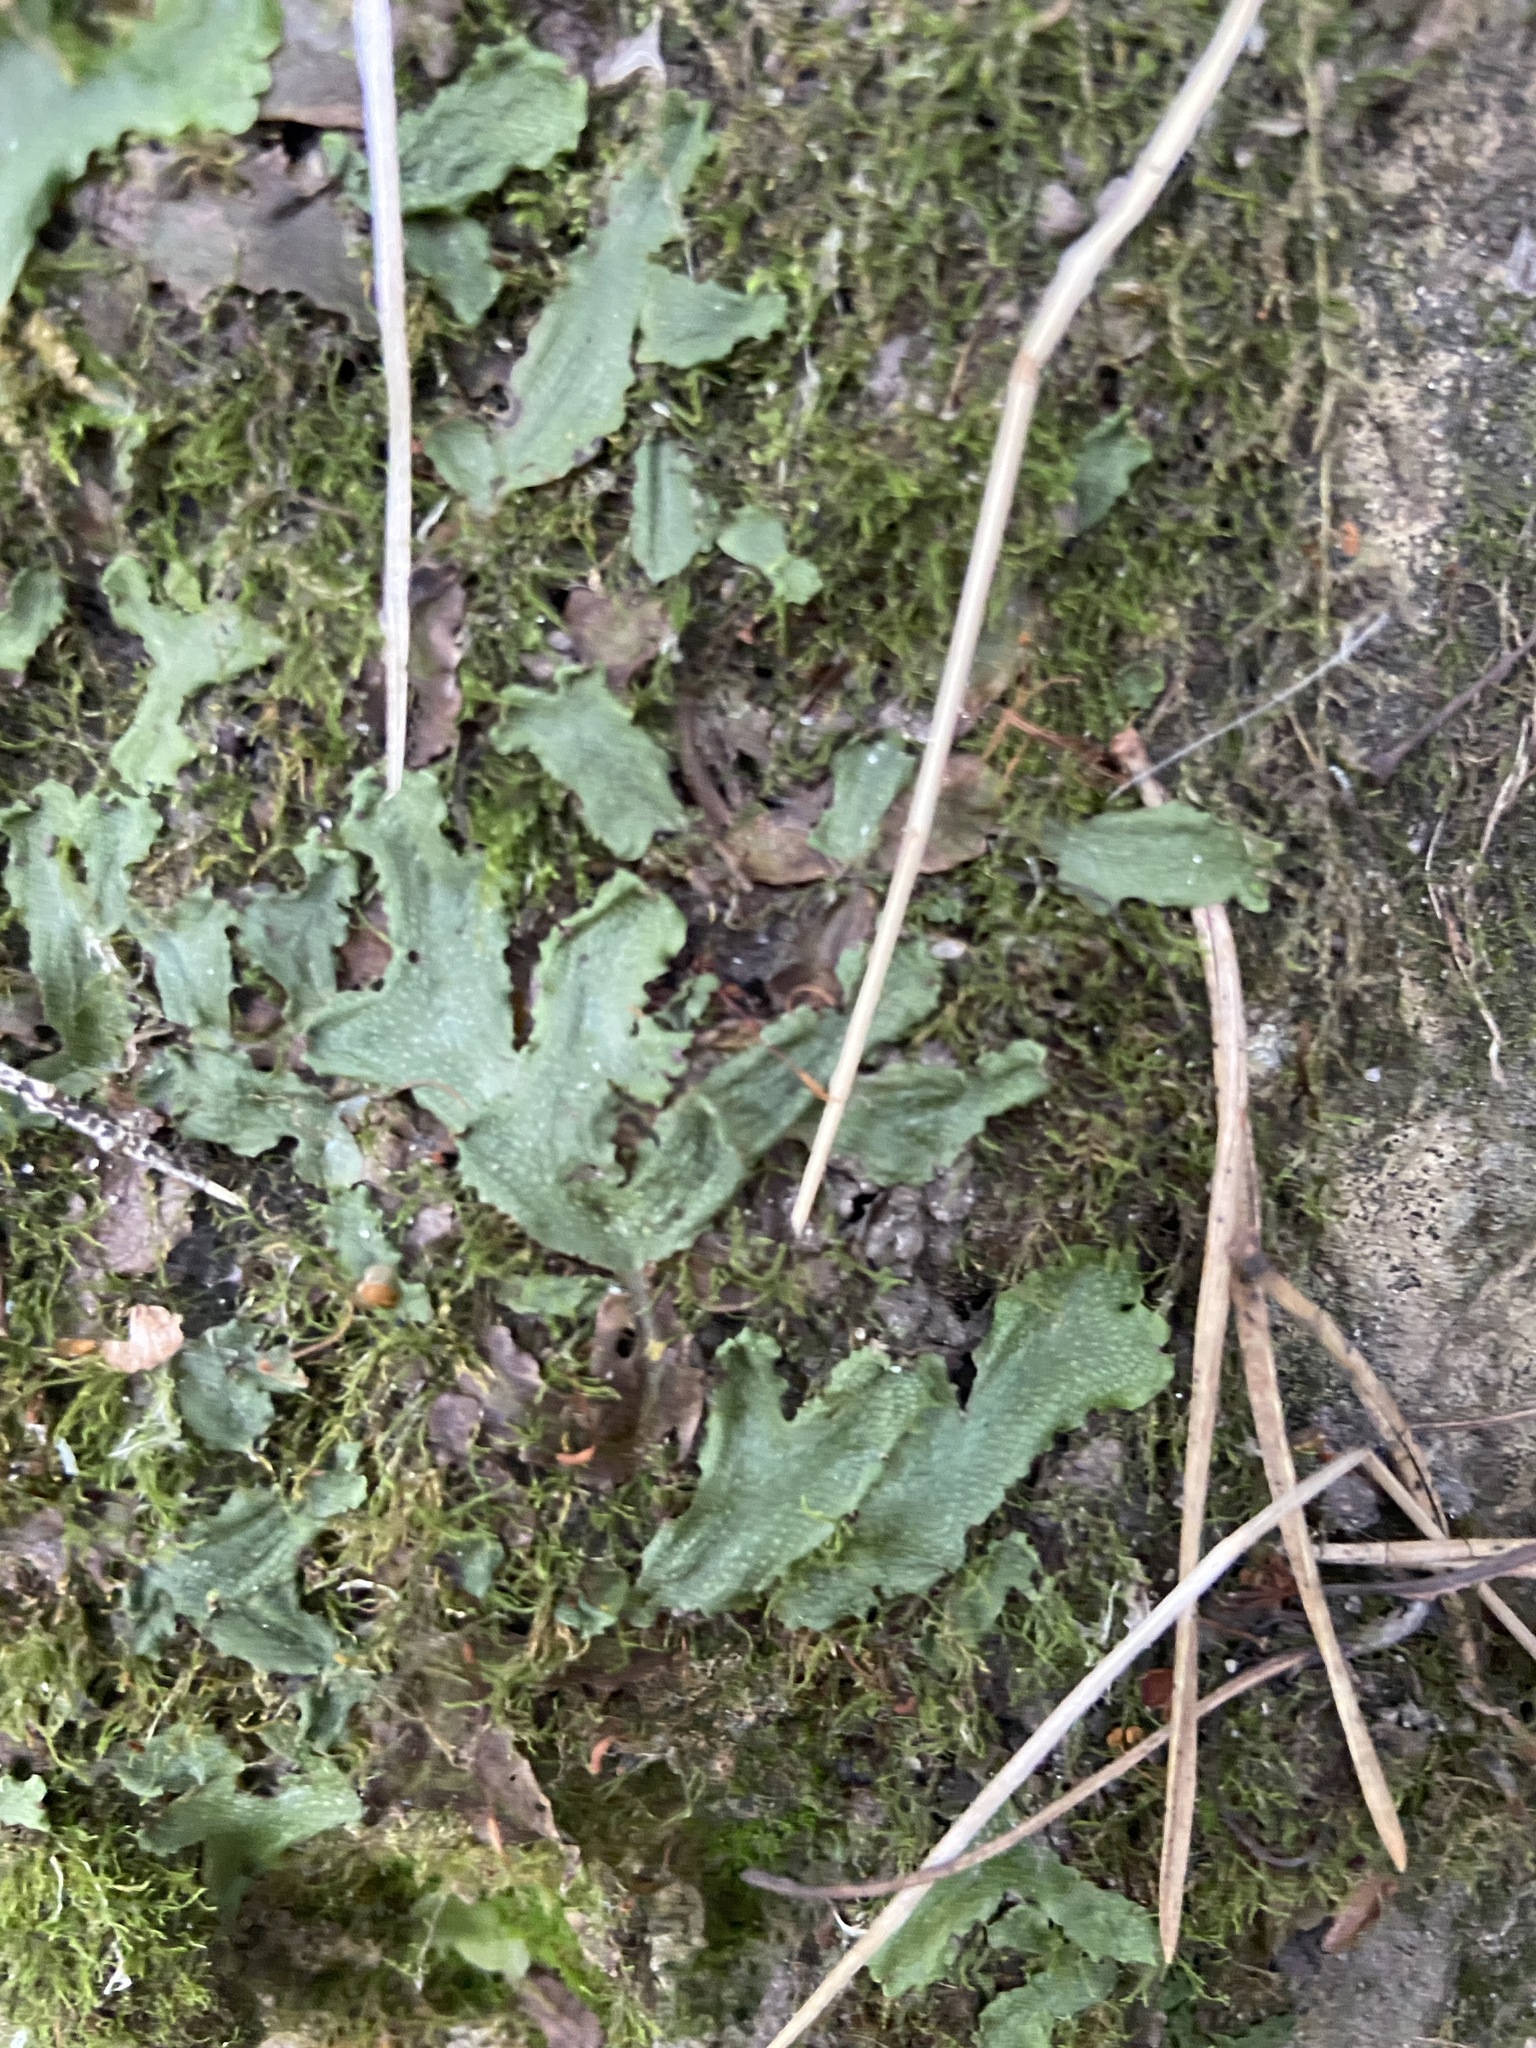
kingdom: Plantae
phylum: Marchantiophyta
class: Marchantiopsida
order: Marchantiales
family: Conocephalaceae
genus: Conocephalum
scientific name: Conocephalum salebrosum
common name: Cat-tongue liverwort
